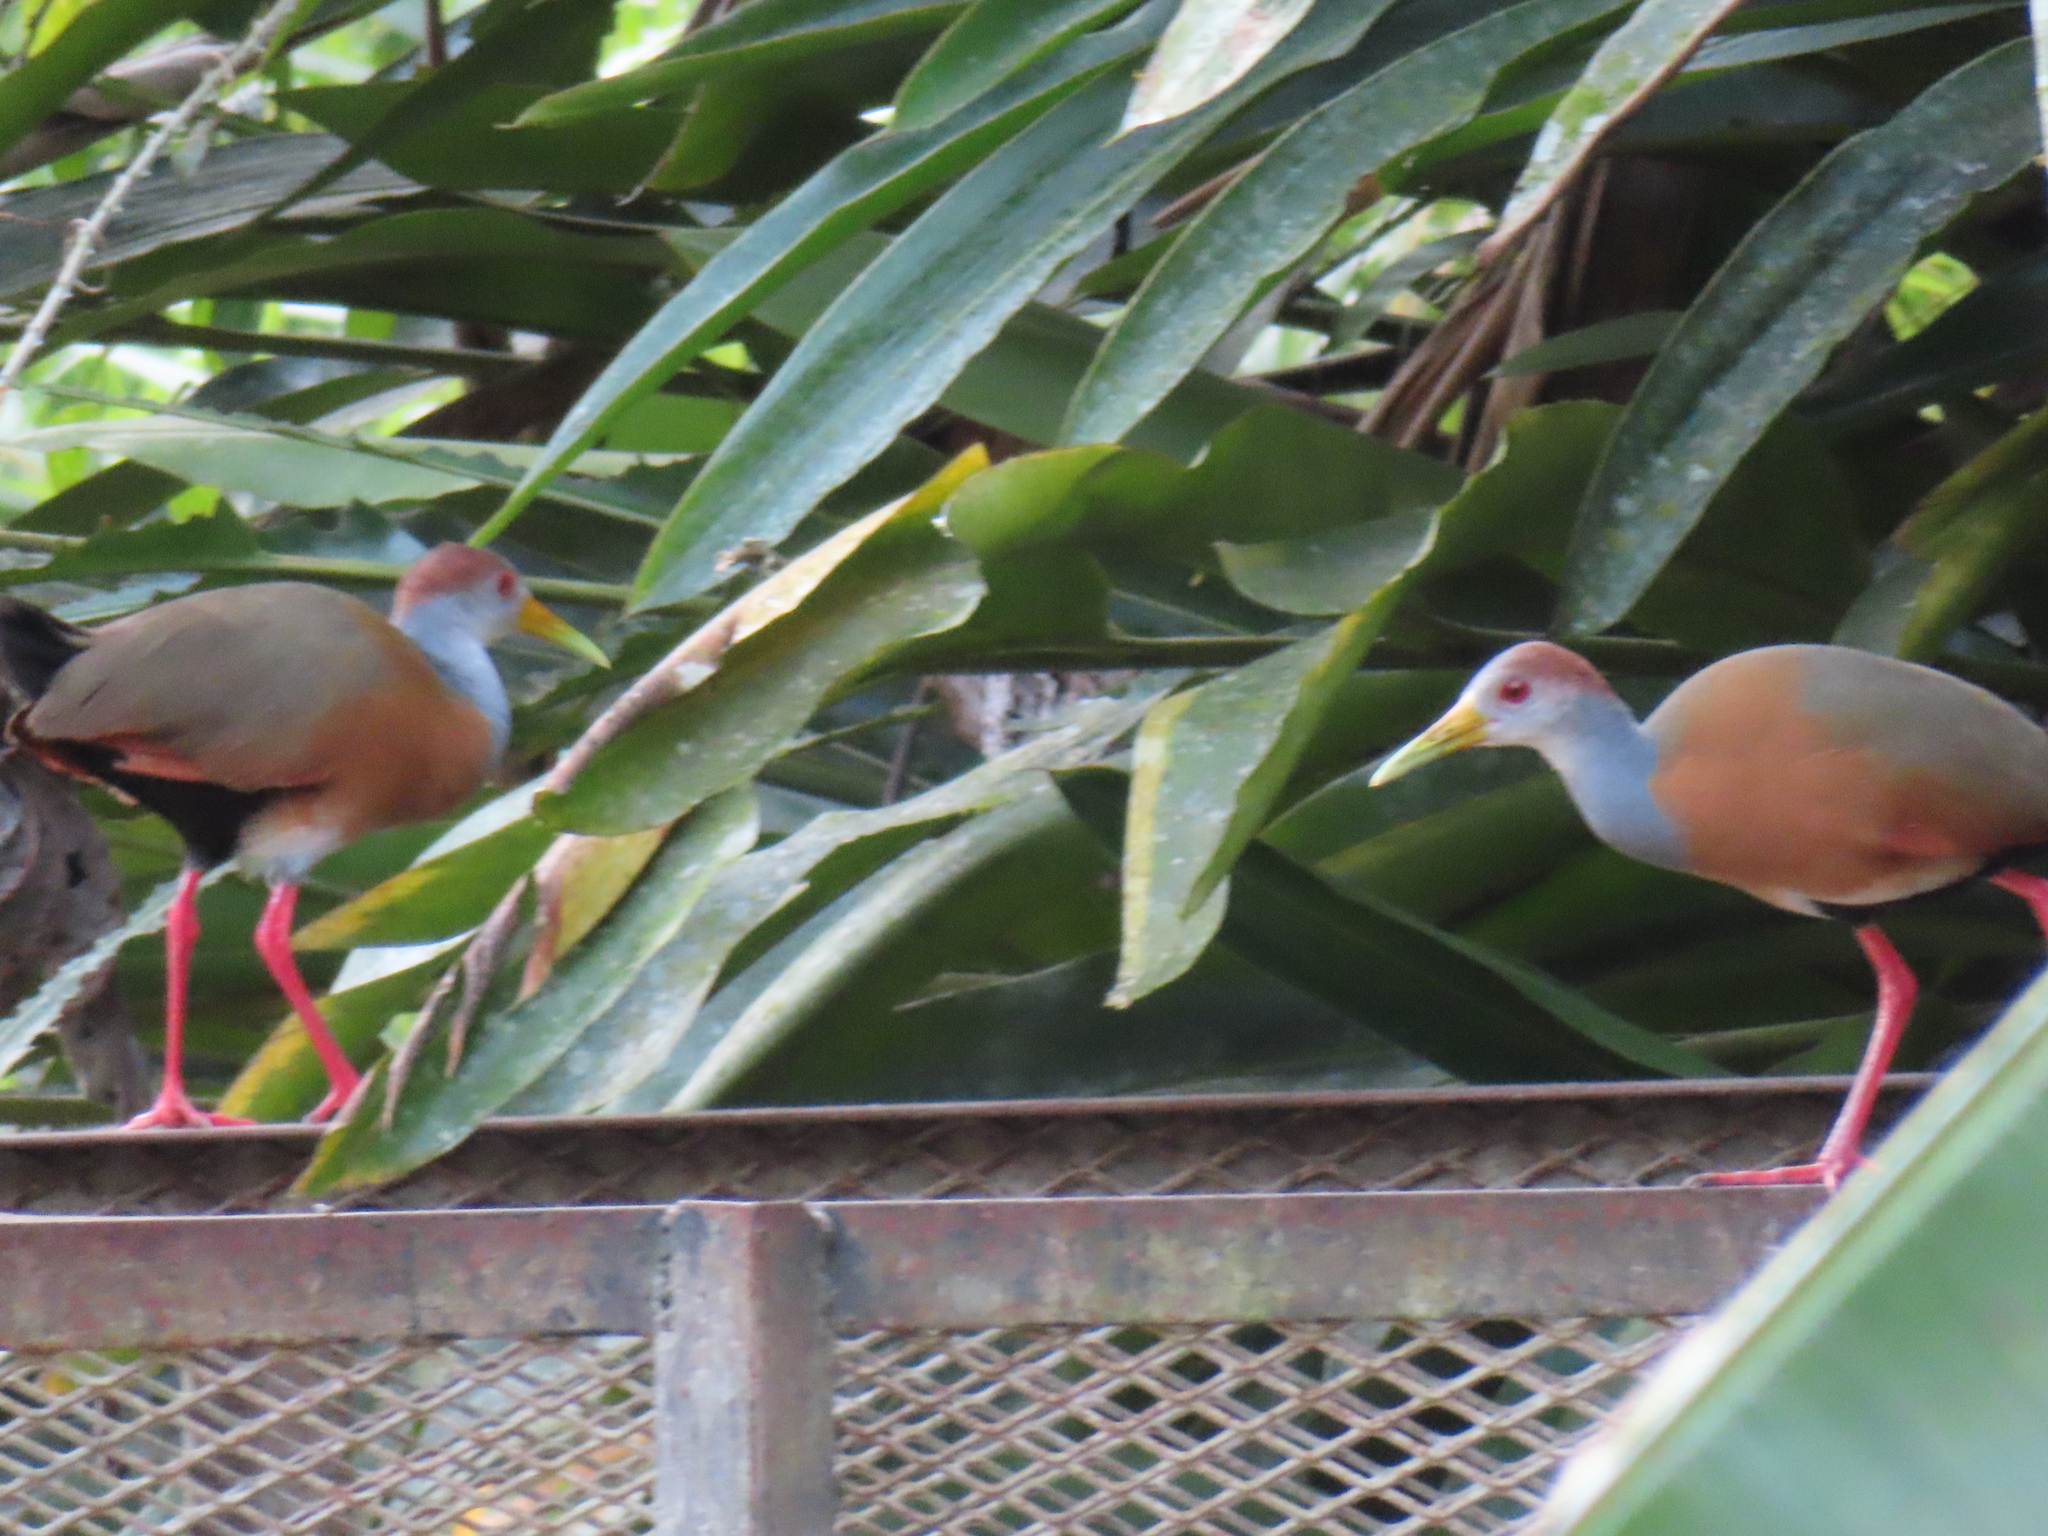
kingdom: Animalia
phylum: Chordata
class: Aves
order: Gruiformes
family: Rallidae
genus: Aramides
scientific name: Aramides albiventris
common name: Russet-naped wood-rail
